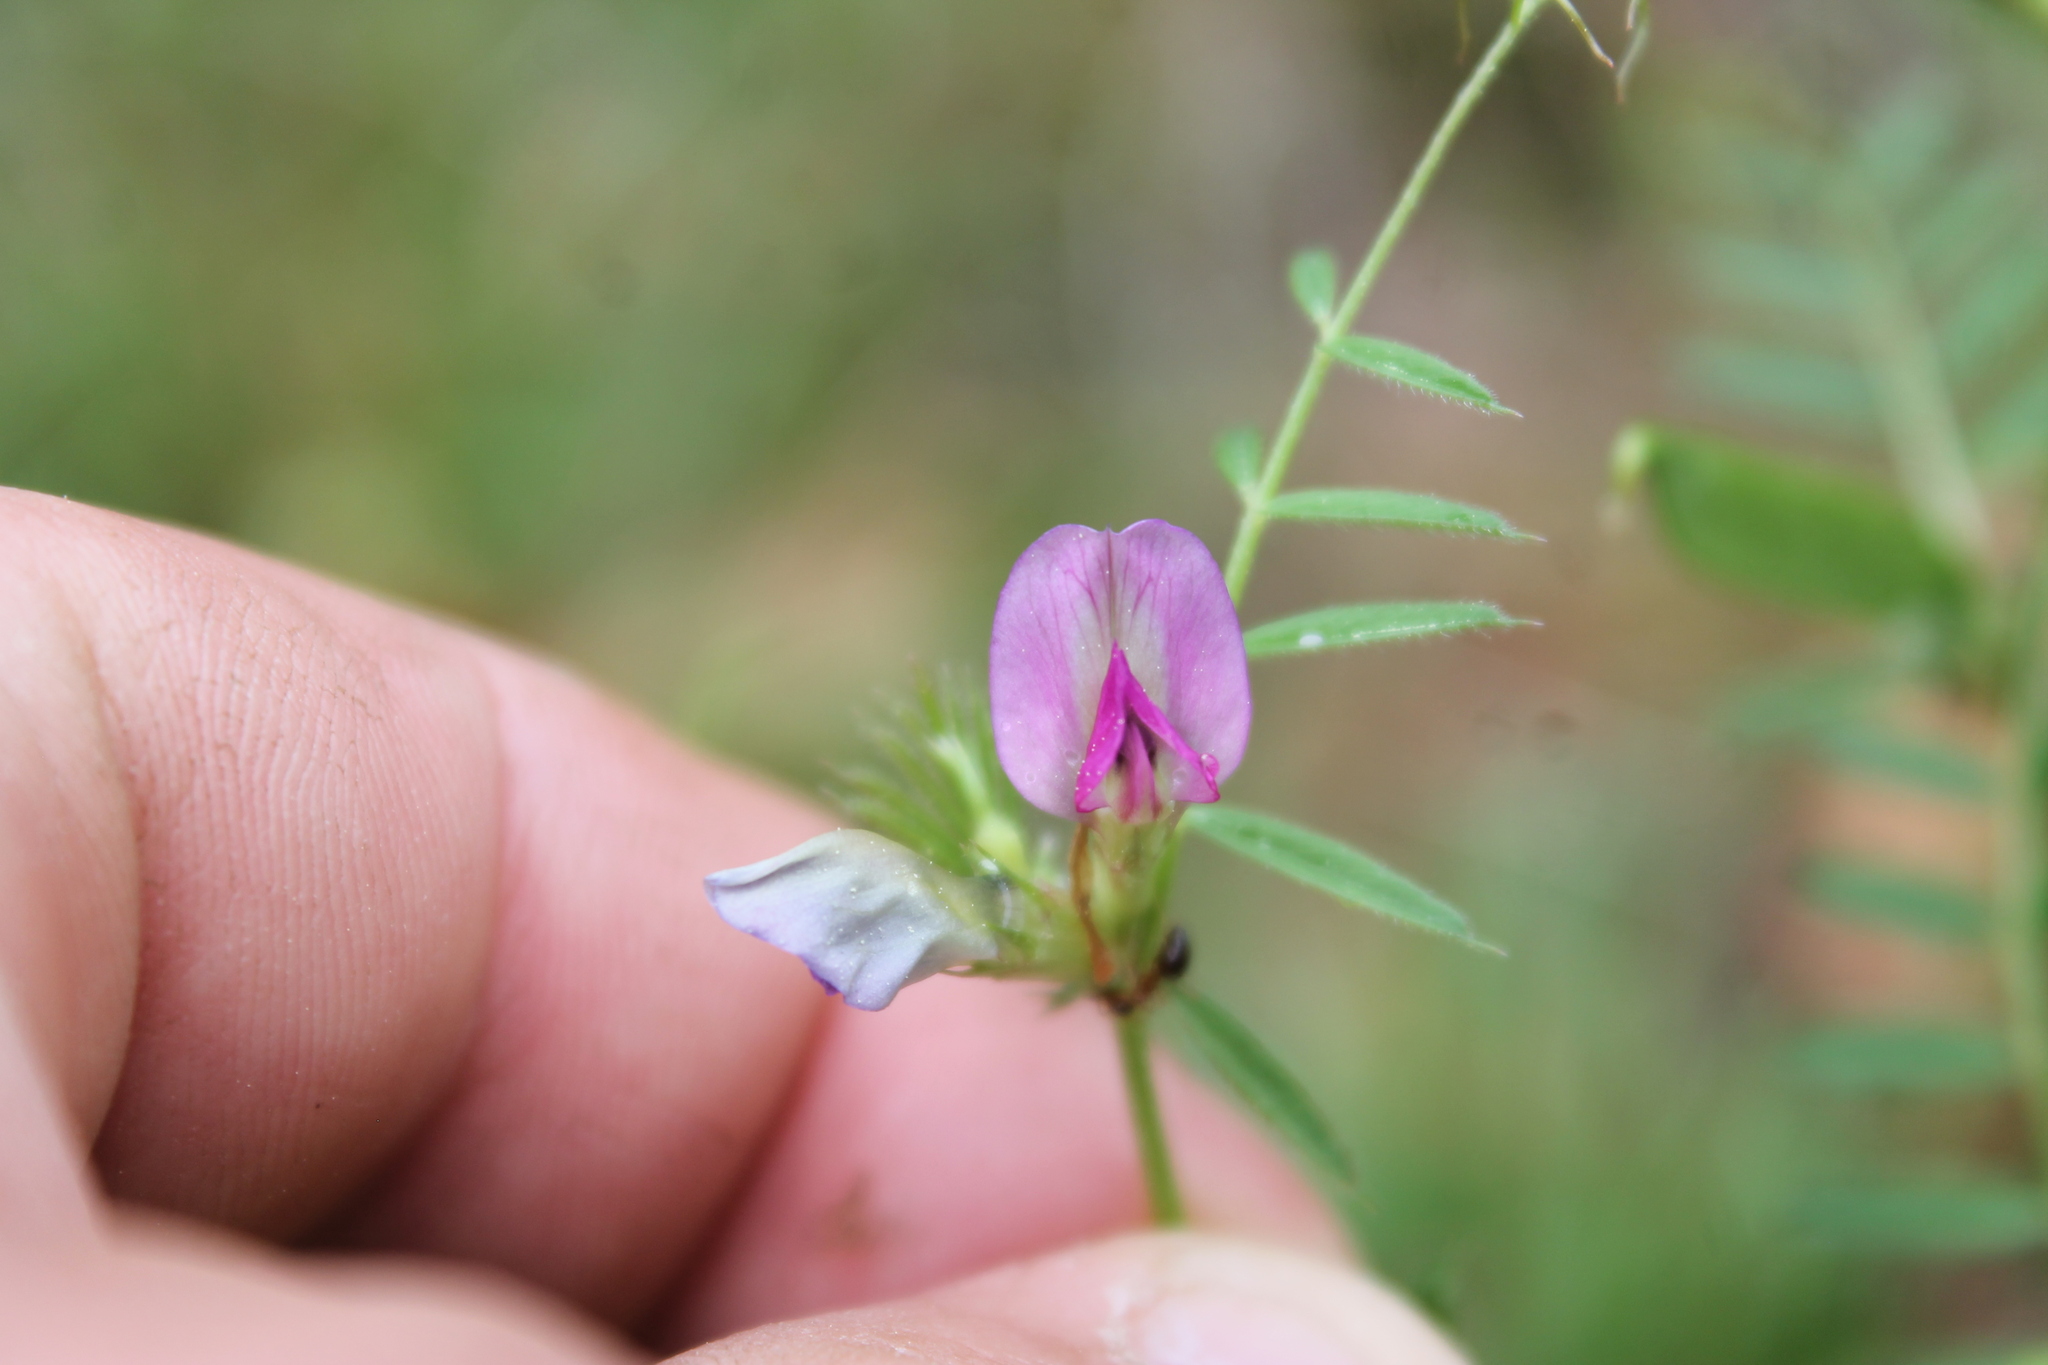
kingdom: Plantae
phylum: Tracheophyta
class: Magnoliopsida
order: Fabales
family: Fabaceae
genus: Vicia
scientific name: Vicia sativa
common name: Garden vetch
